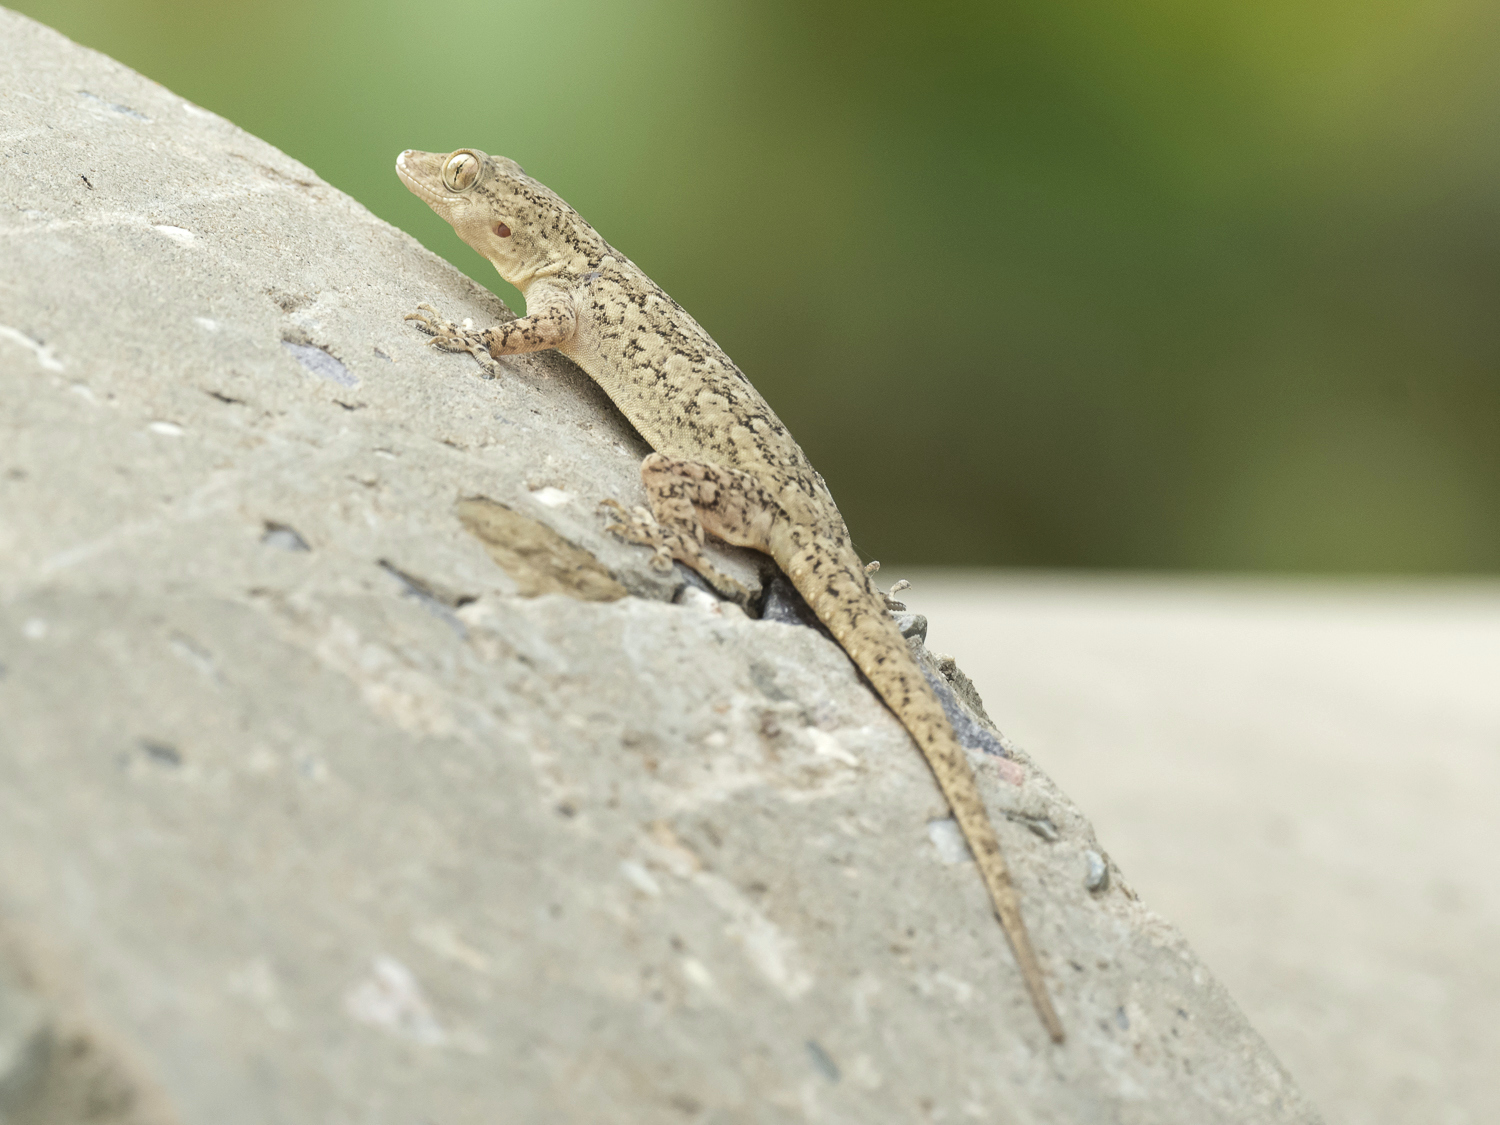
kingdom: Animalia
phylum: Chordata
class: Squamata
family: Gekkonidae
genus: Hemidactylus
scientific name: Hemidactylus leschenaultii
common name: Leschenault's leaf-toed gecko
